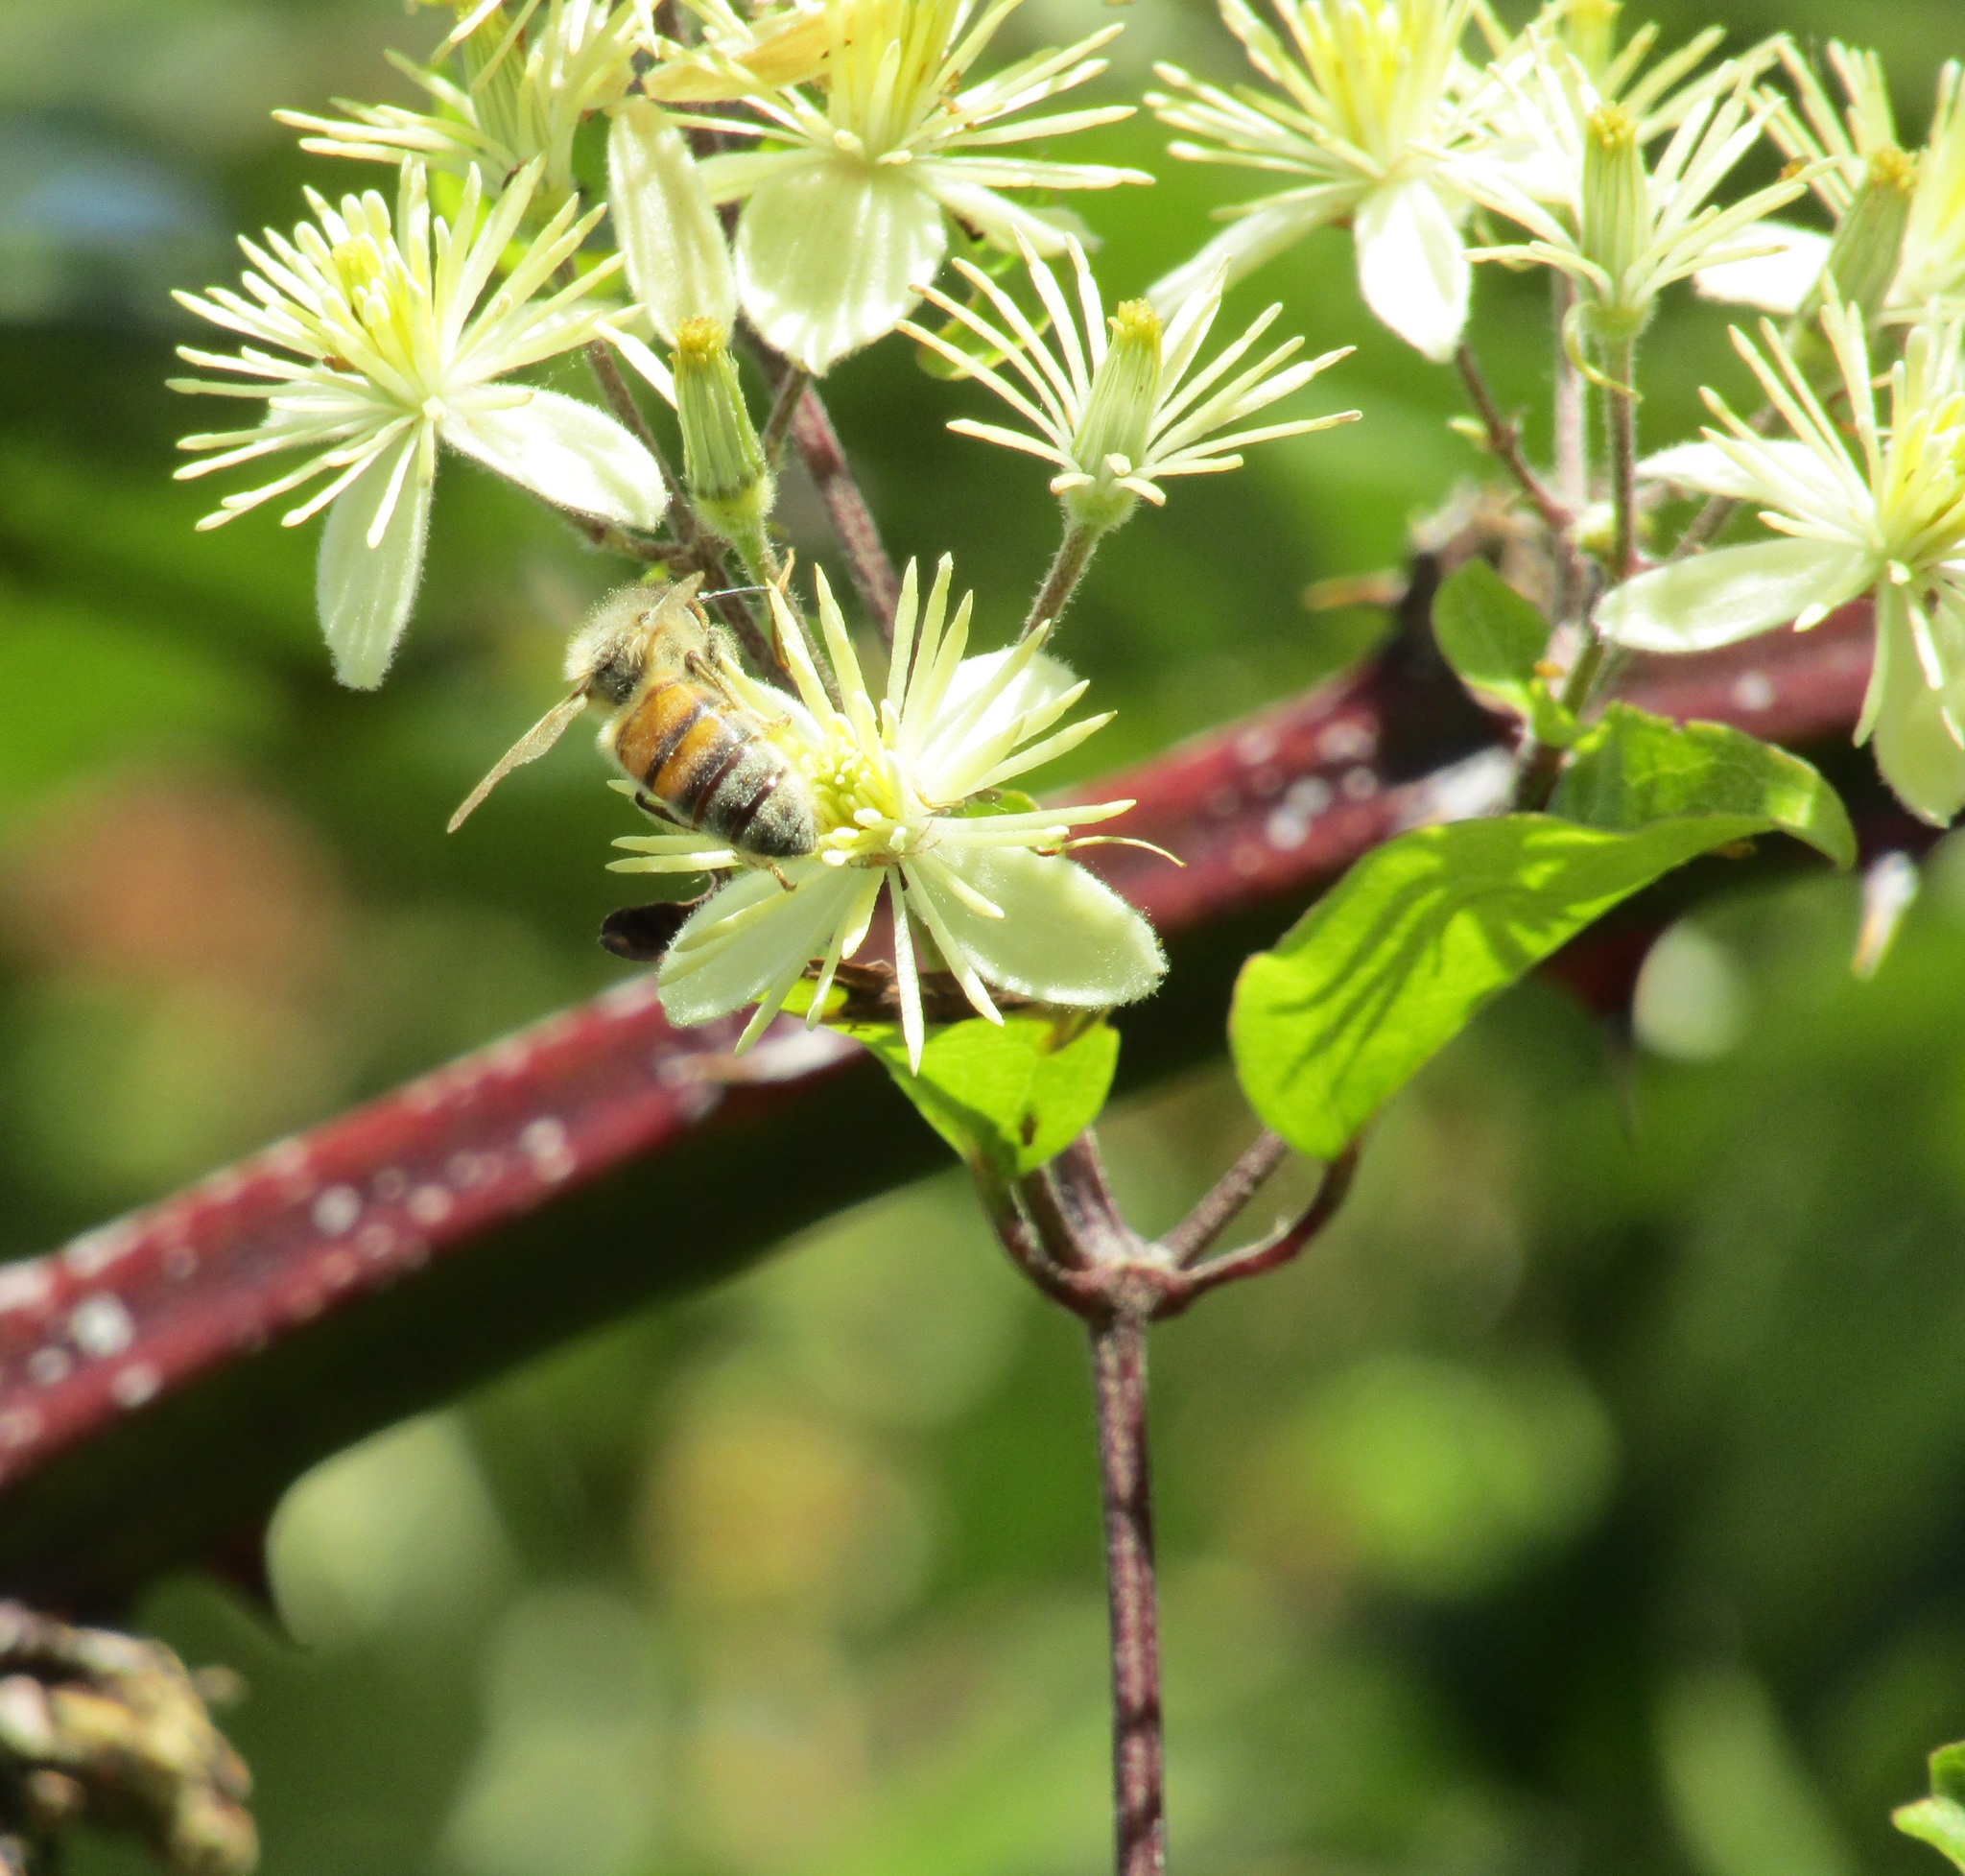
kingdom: Plantae
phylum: Tracheophyta
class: Magnoliopsida
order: Ranunculales
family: Ranunculaceae
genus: Clematis
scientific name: Clematis vitalba
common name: Evergreen clematis
